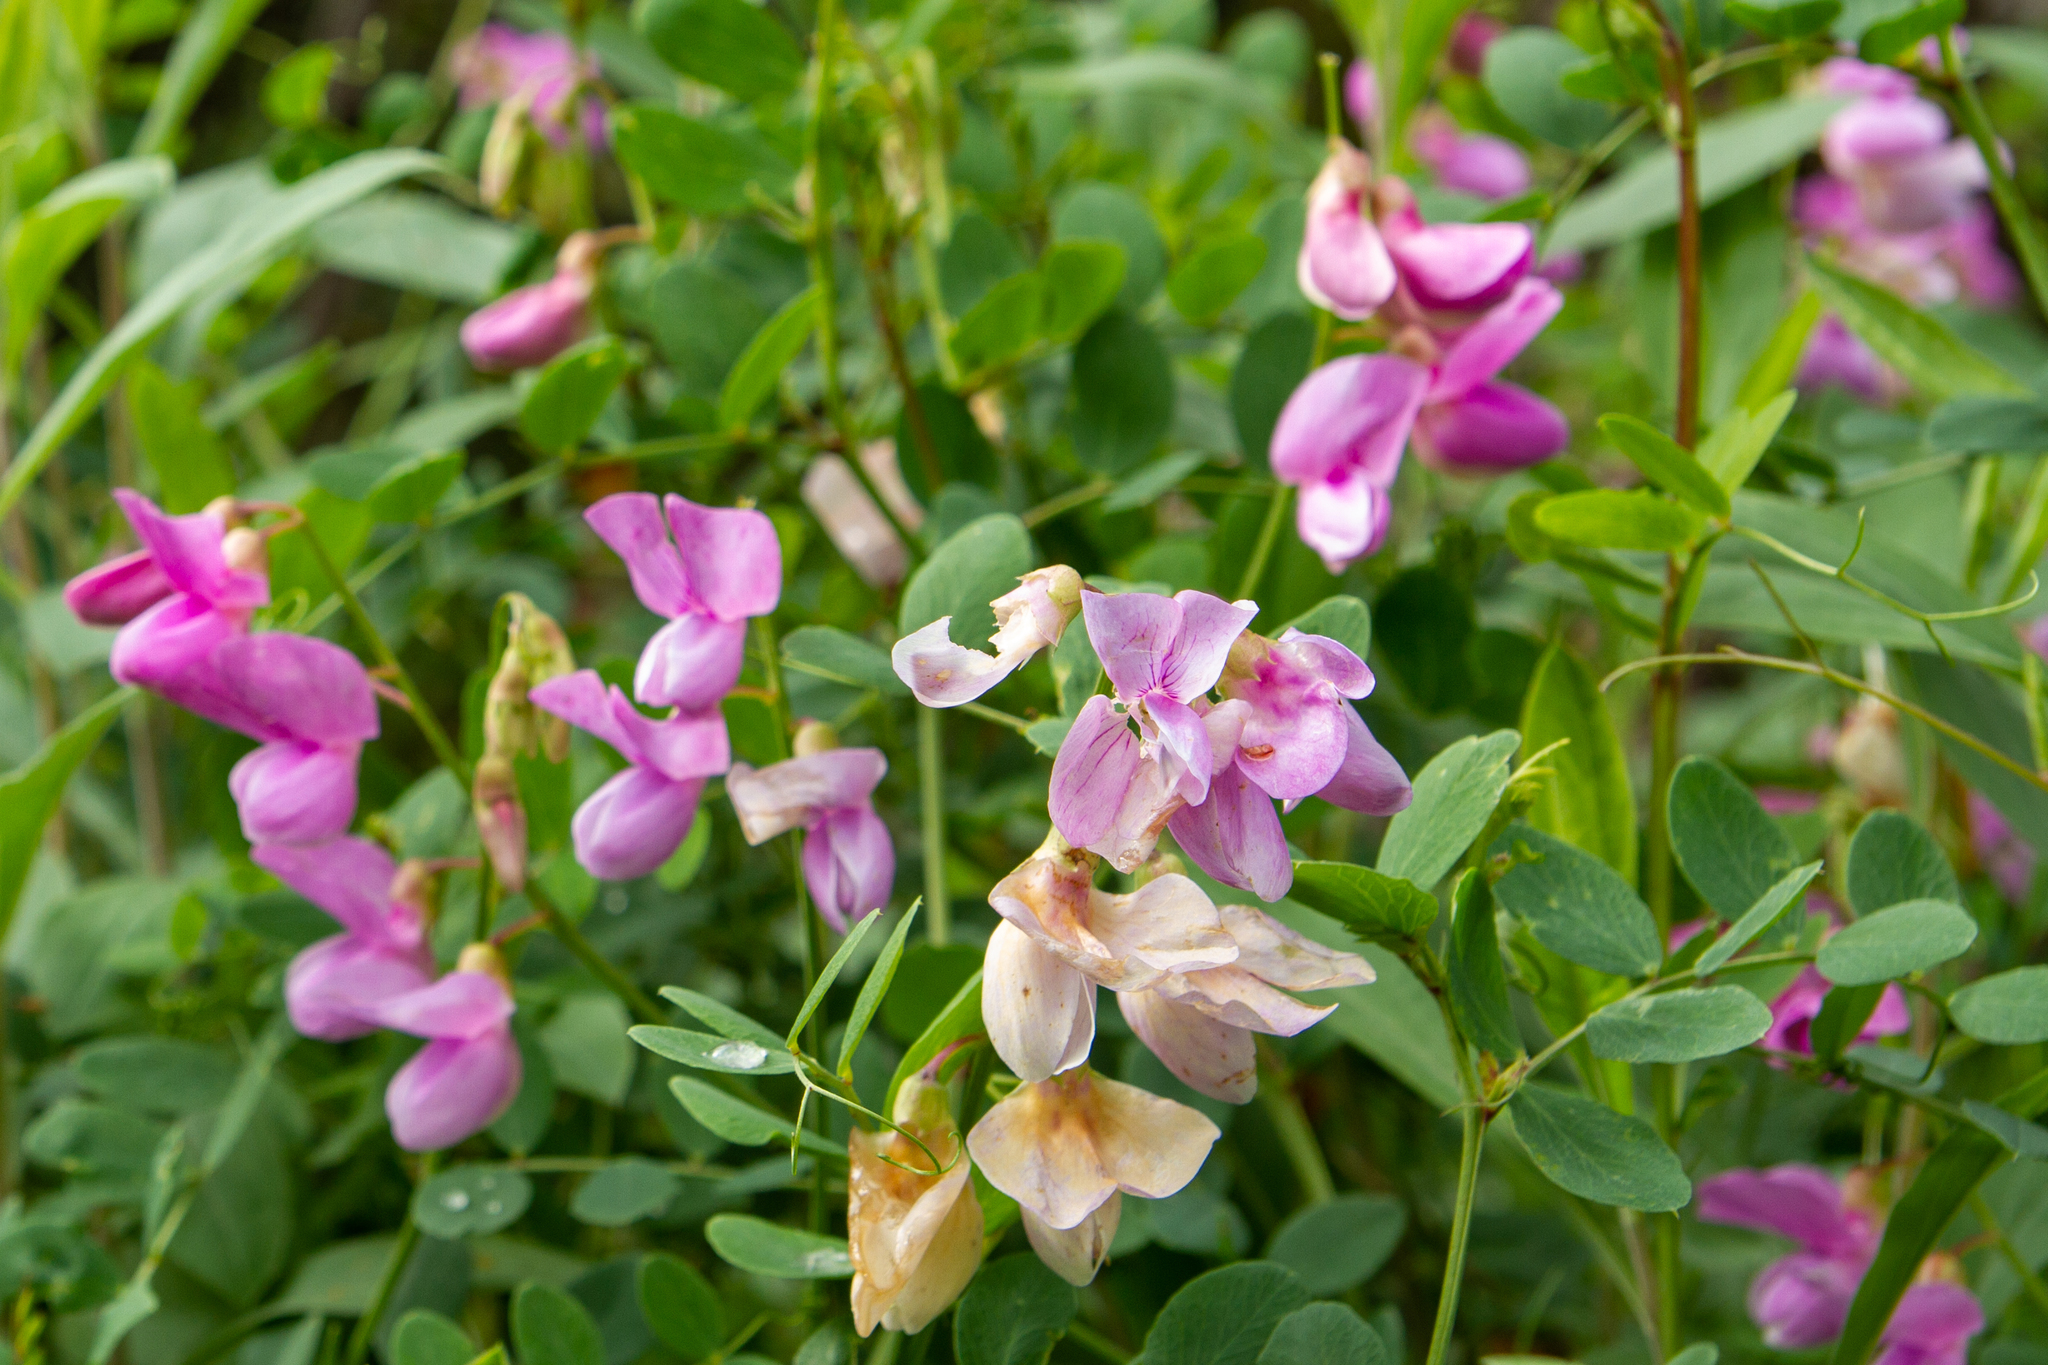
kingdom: Plantae
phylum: Tracheophyta
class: Magnoliopsida
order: Fabales
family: Fabaceae
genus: Lathyrus
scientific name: Lathyrus vestitus
